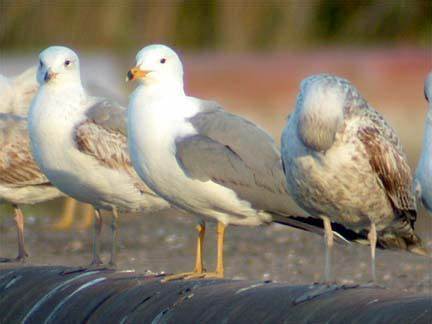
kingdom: Animalia
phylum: Chordata
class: Aves
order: Charadriiformes
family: Laridae
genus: Larus
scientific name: Larus cachinnans
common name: Caspian gull
